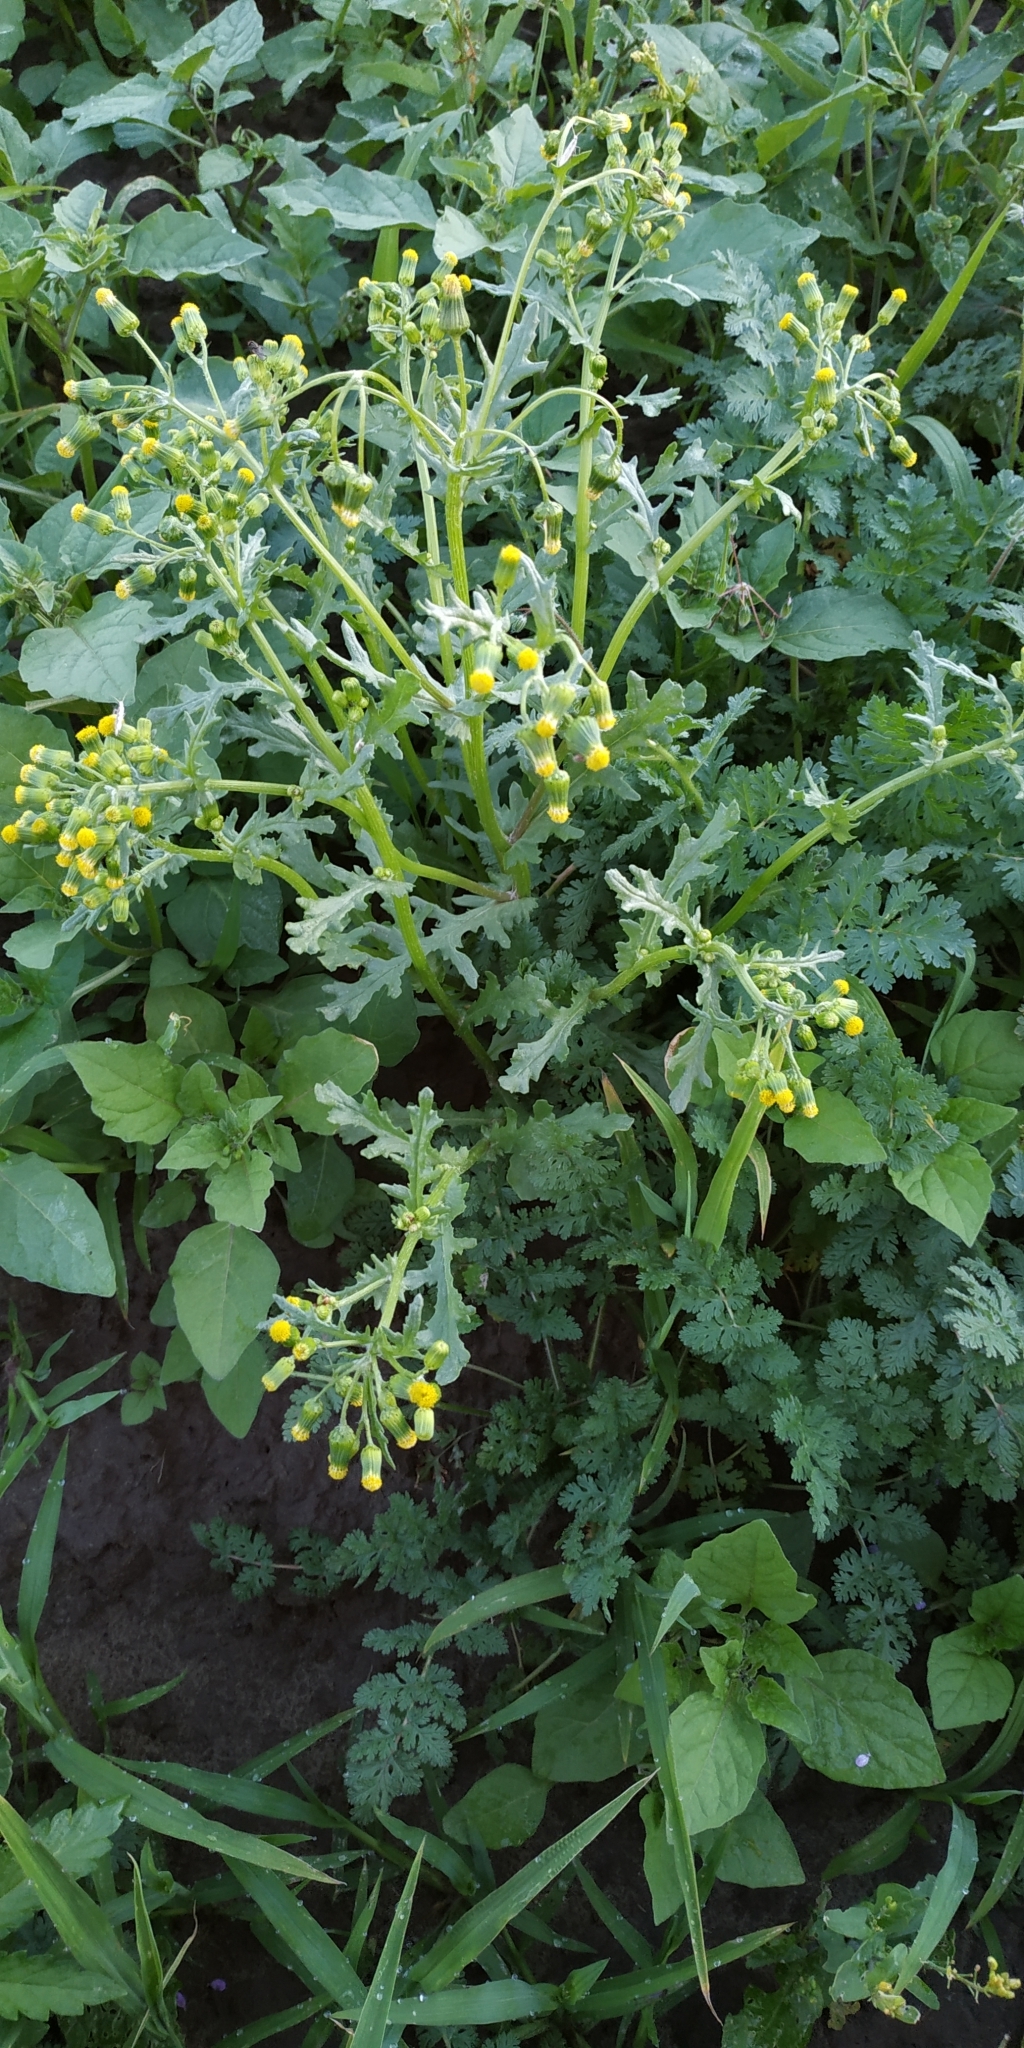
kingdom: Plantae
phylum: Tracheophyta
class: Magnoliopsida
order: Asterales
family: Asteraceae
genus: Senecio
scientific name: Senecio vulgaris
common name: Old-man-in-the-spring
